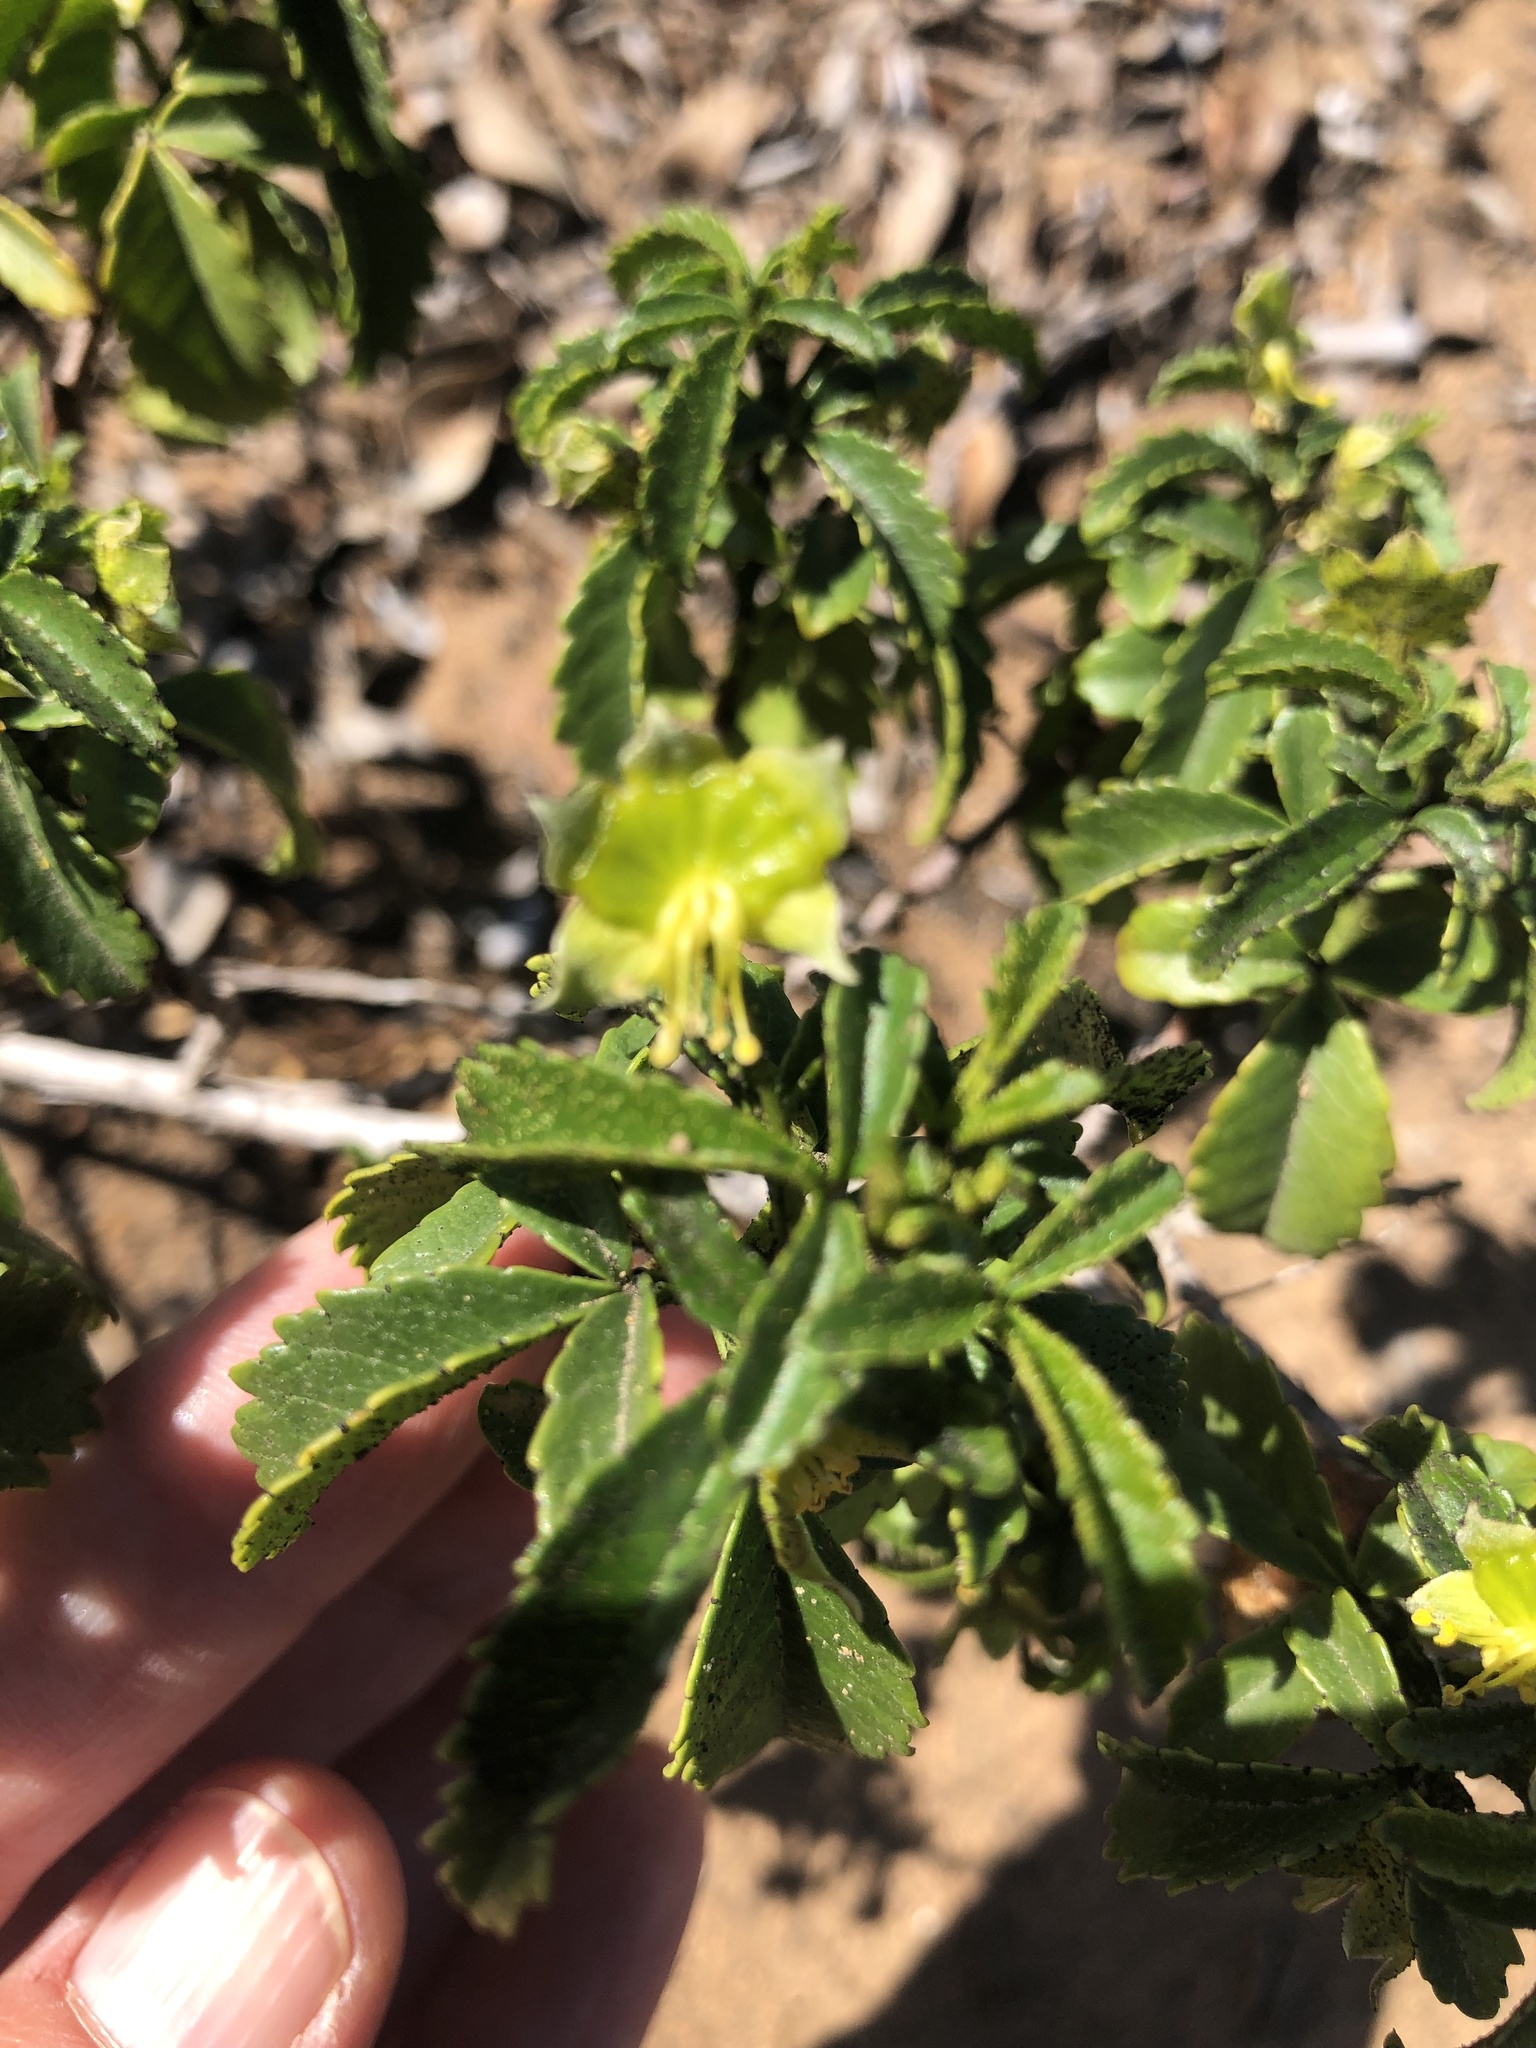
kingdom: Plantae
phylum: Tracheophyta
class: Magnoliopsida
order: Sapindales
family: Sapindaceae
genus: Llagunoa
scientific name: Llagunoa glandulosa
